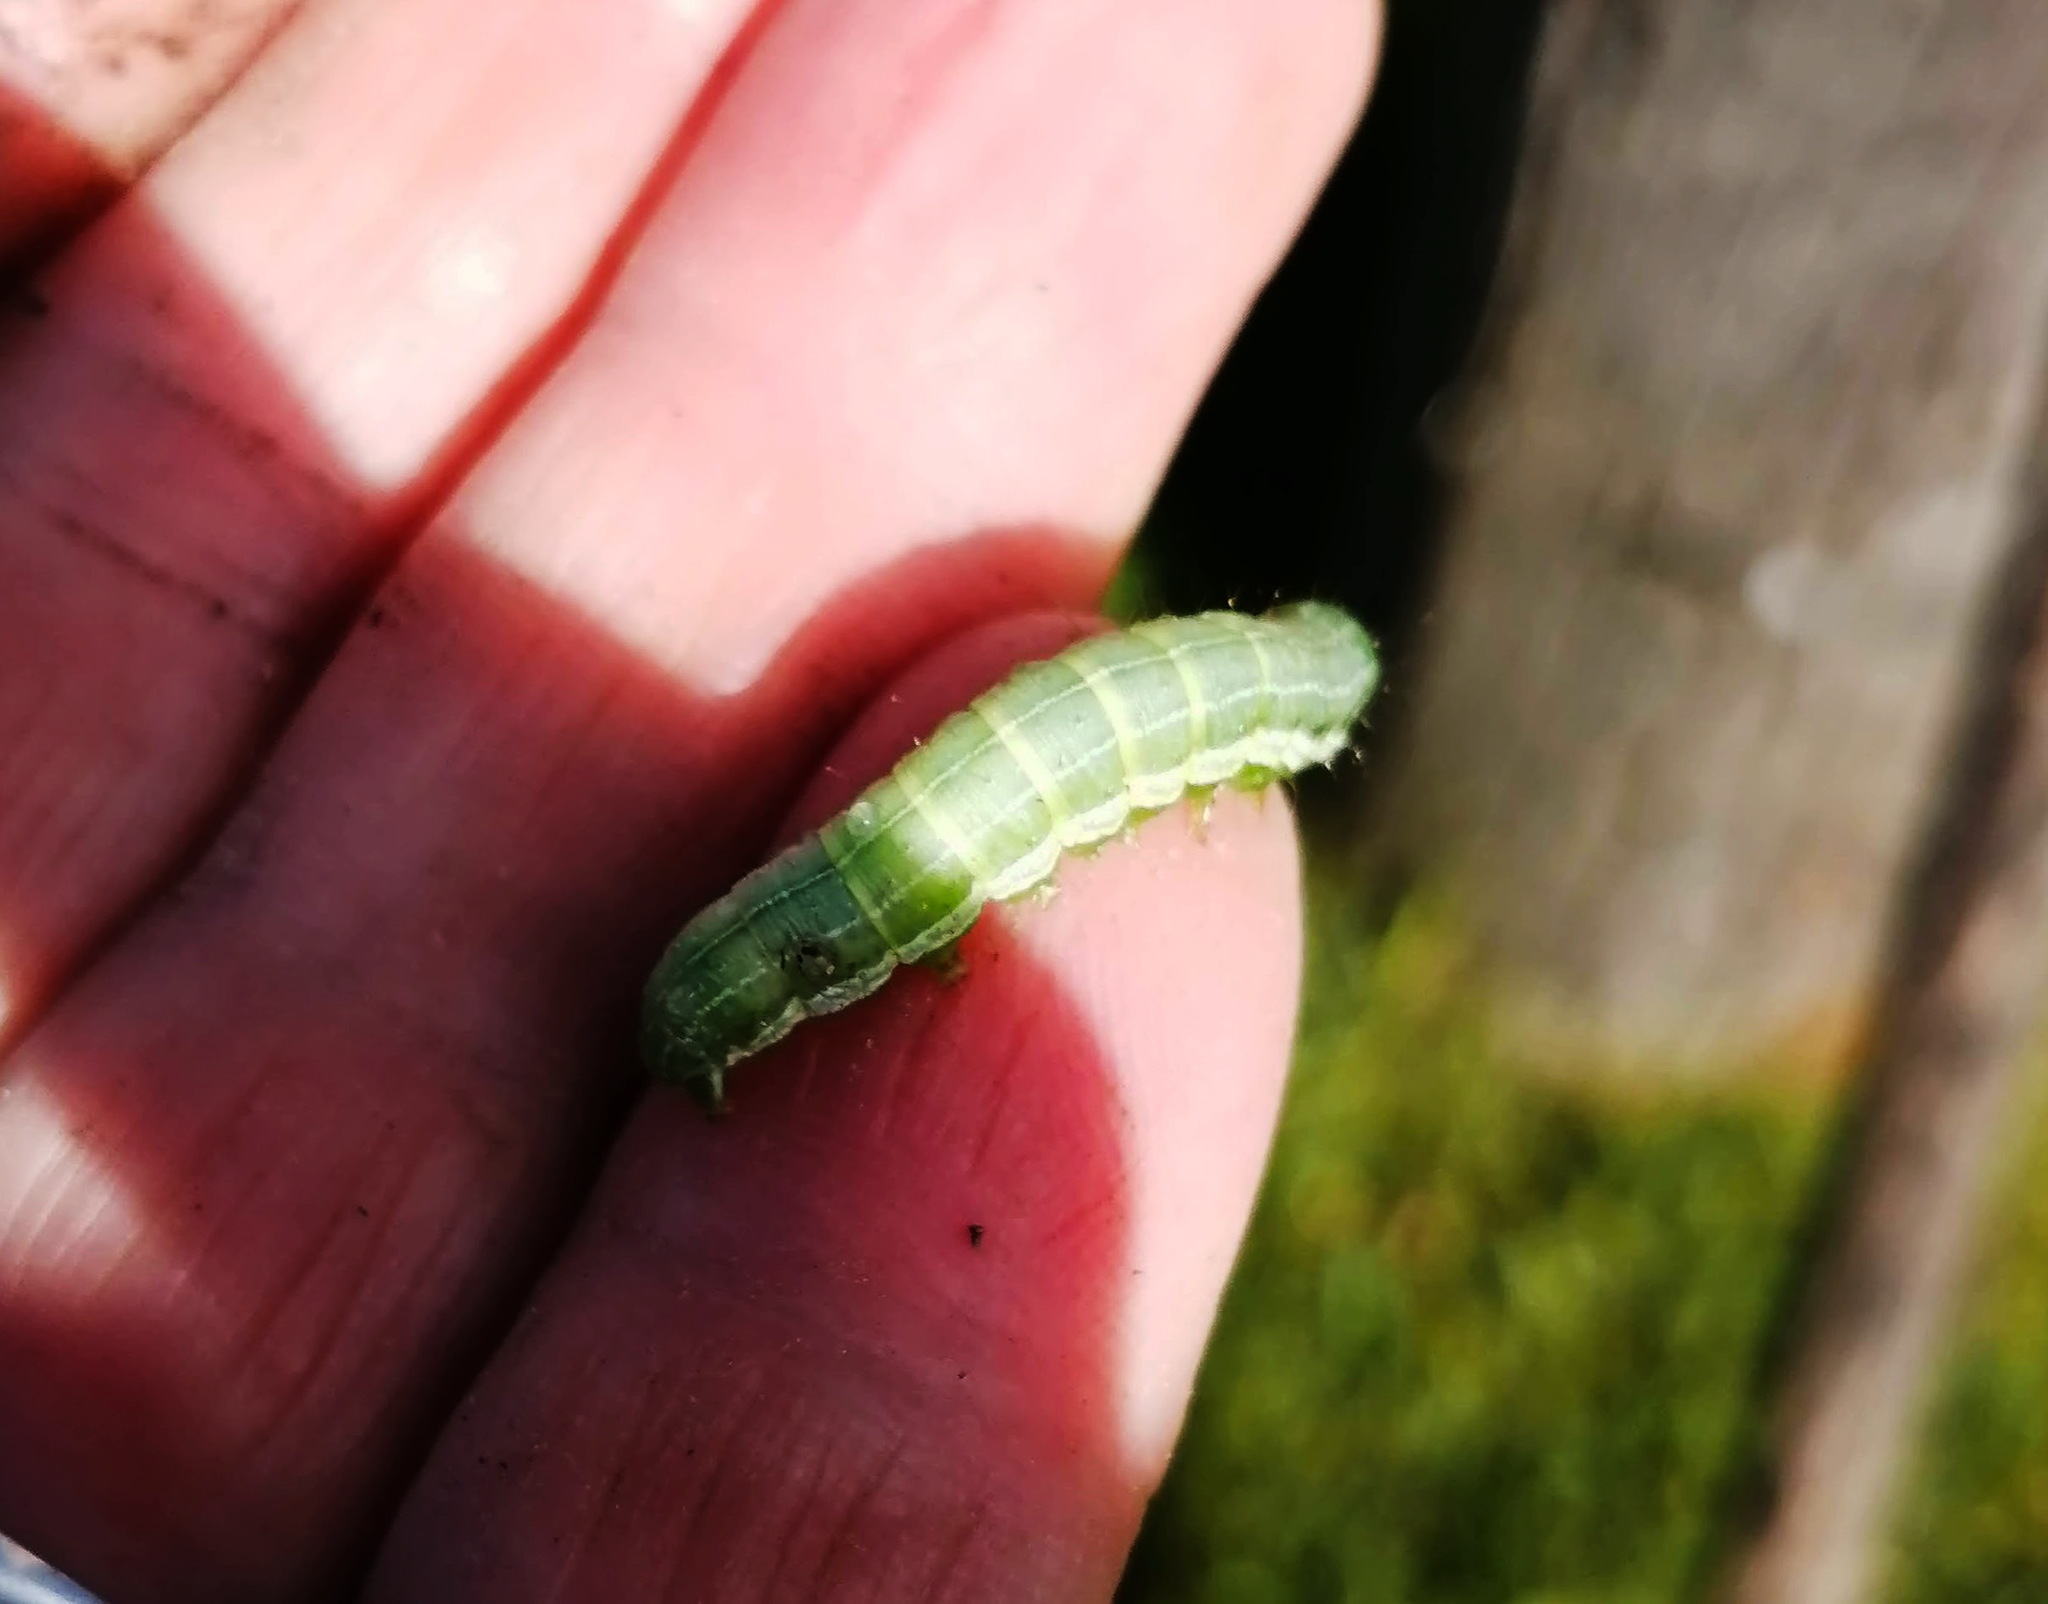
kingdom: Animalia
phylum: Arthropoda
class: Insecta
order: Lepidoptera
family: Noctuidae
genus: Loscopia
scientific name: Loscopia velata
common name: Veiled ear moth
